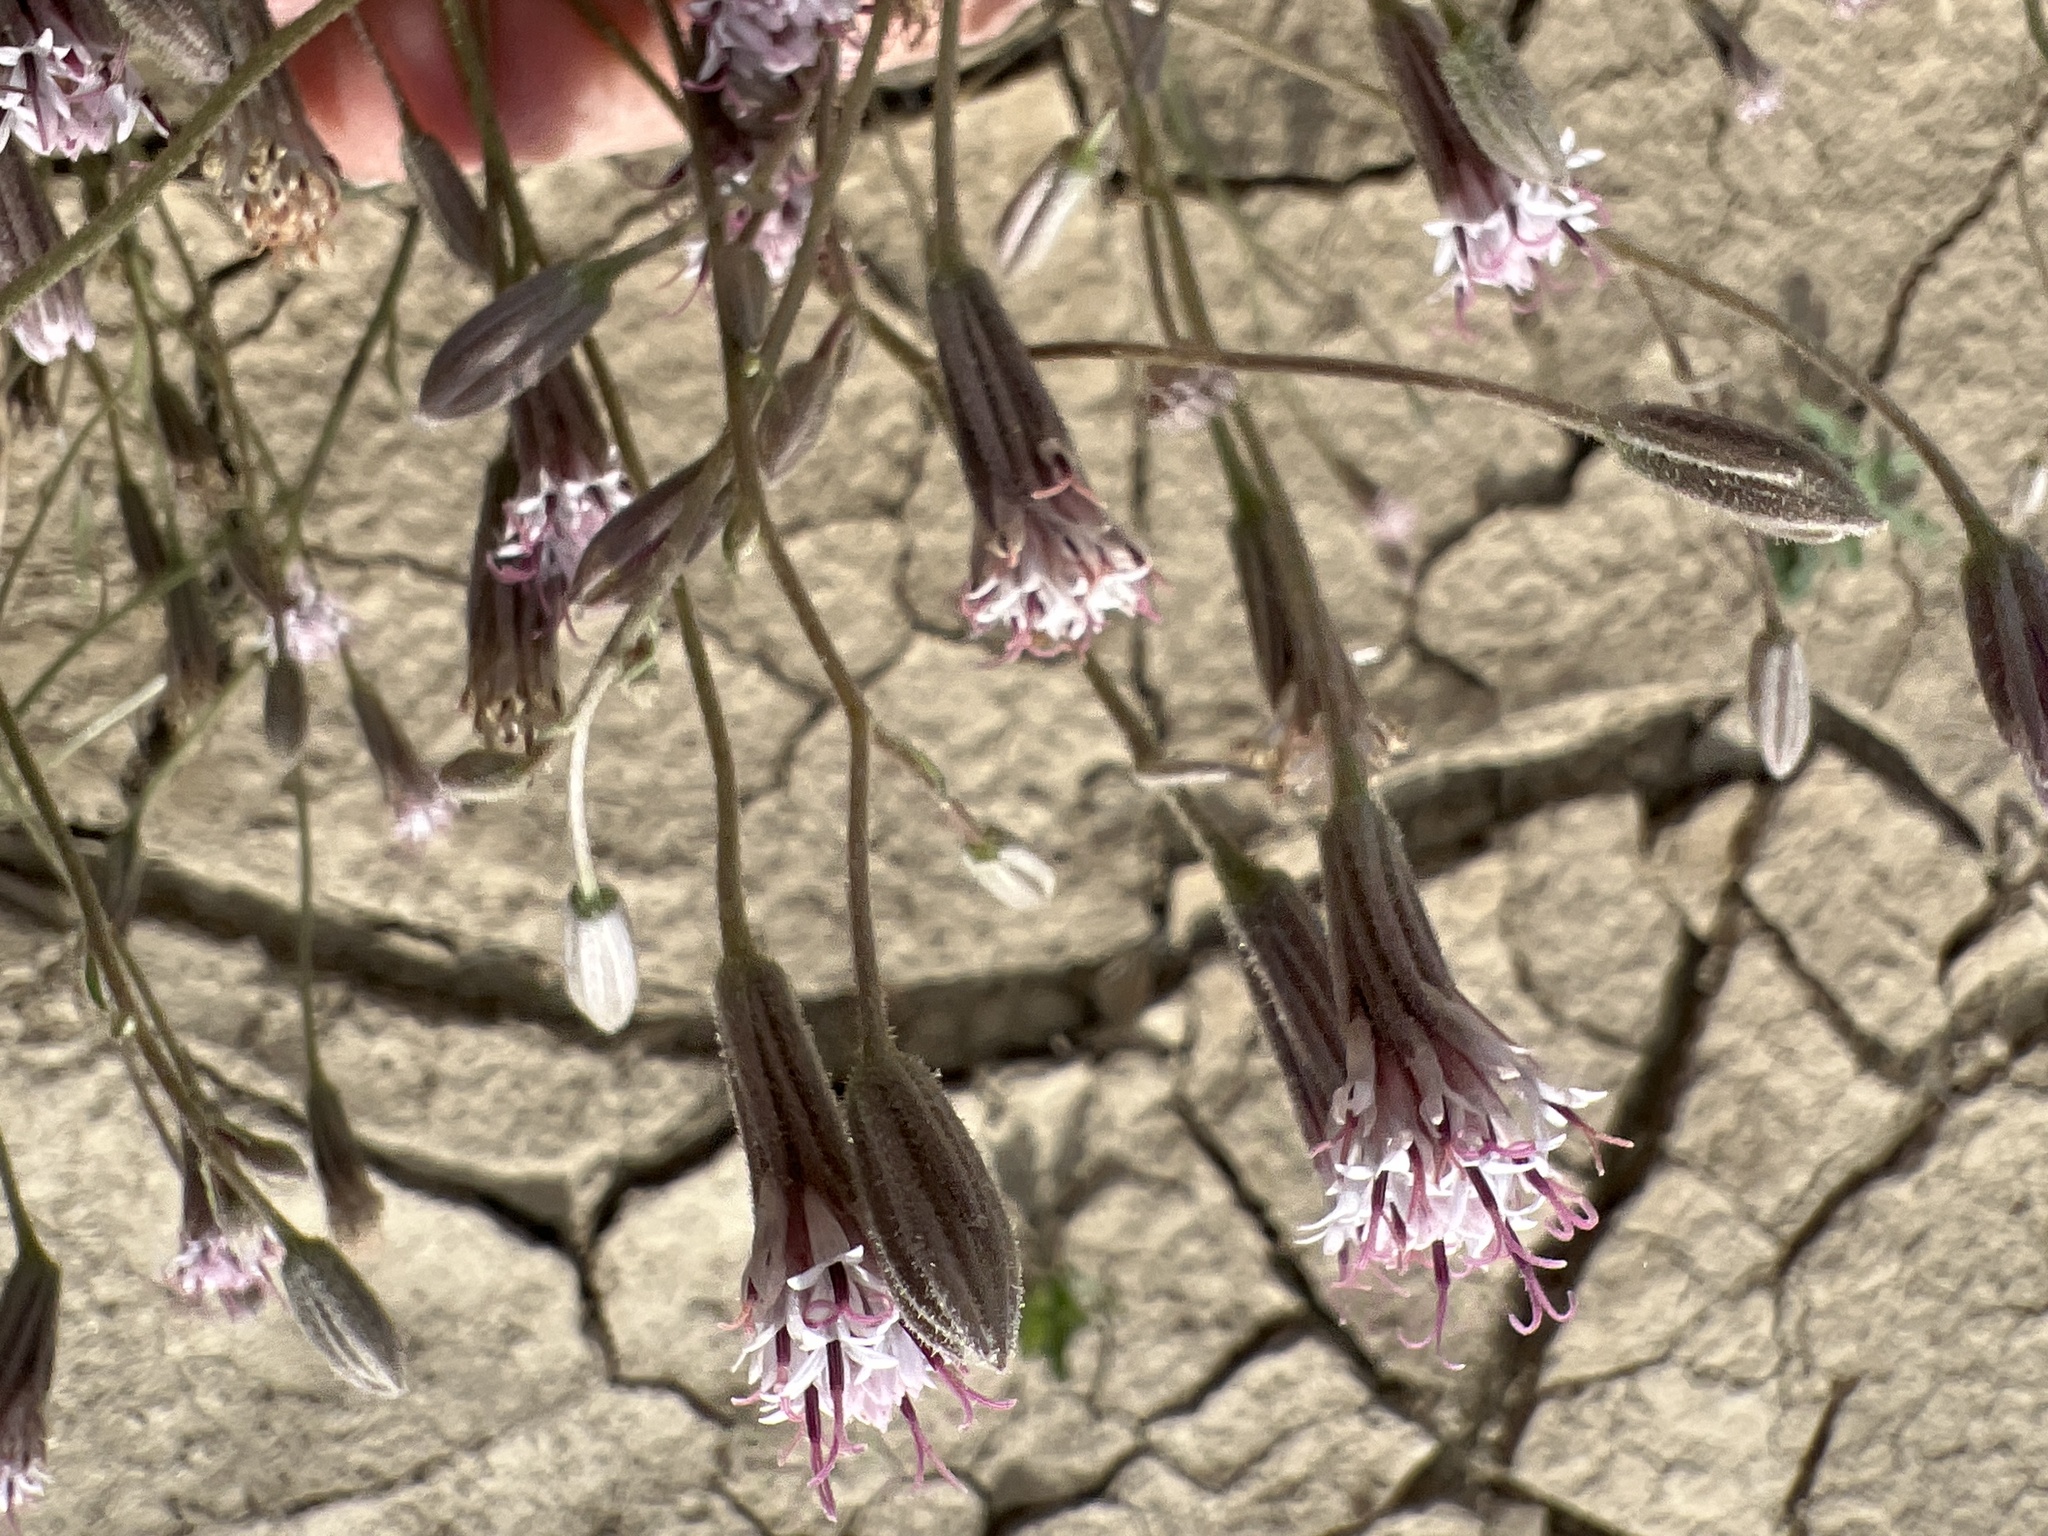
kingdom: Plantae
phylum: Tracheophyta
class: Magnoliopsida
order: Asterales
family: Asteraceae
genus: Palafoxia
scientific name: Palafoxia arida
